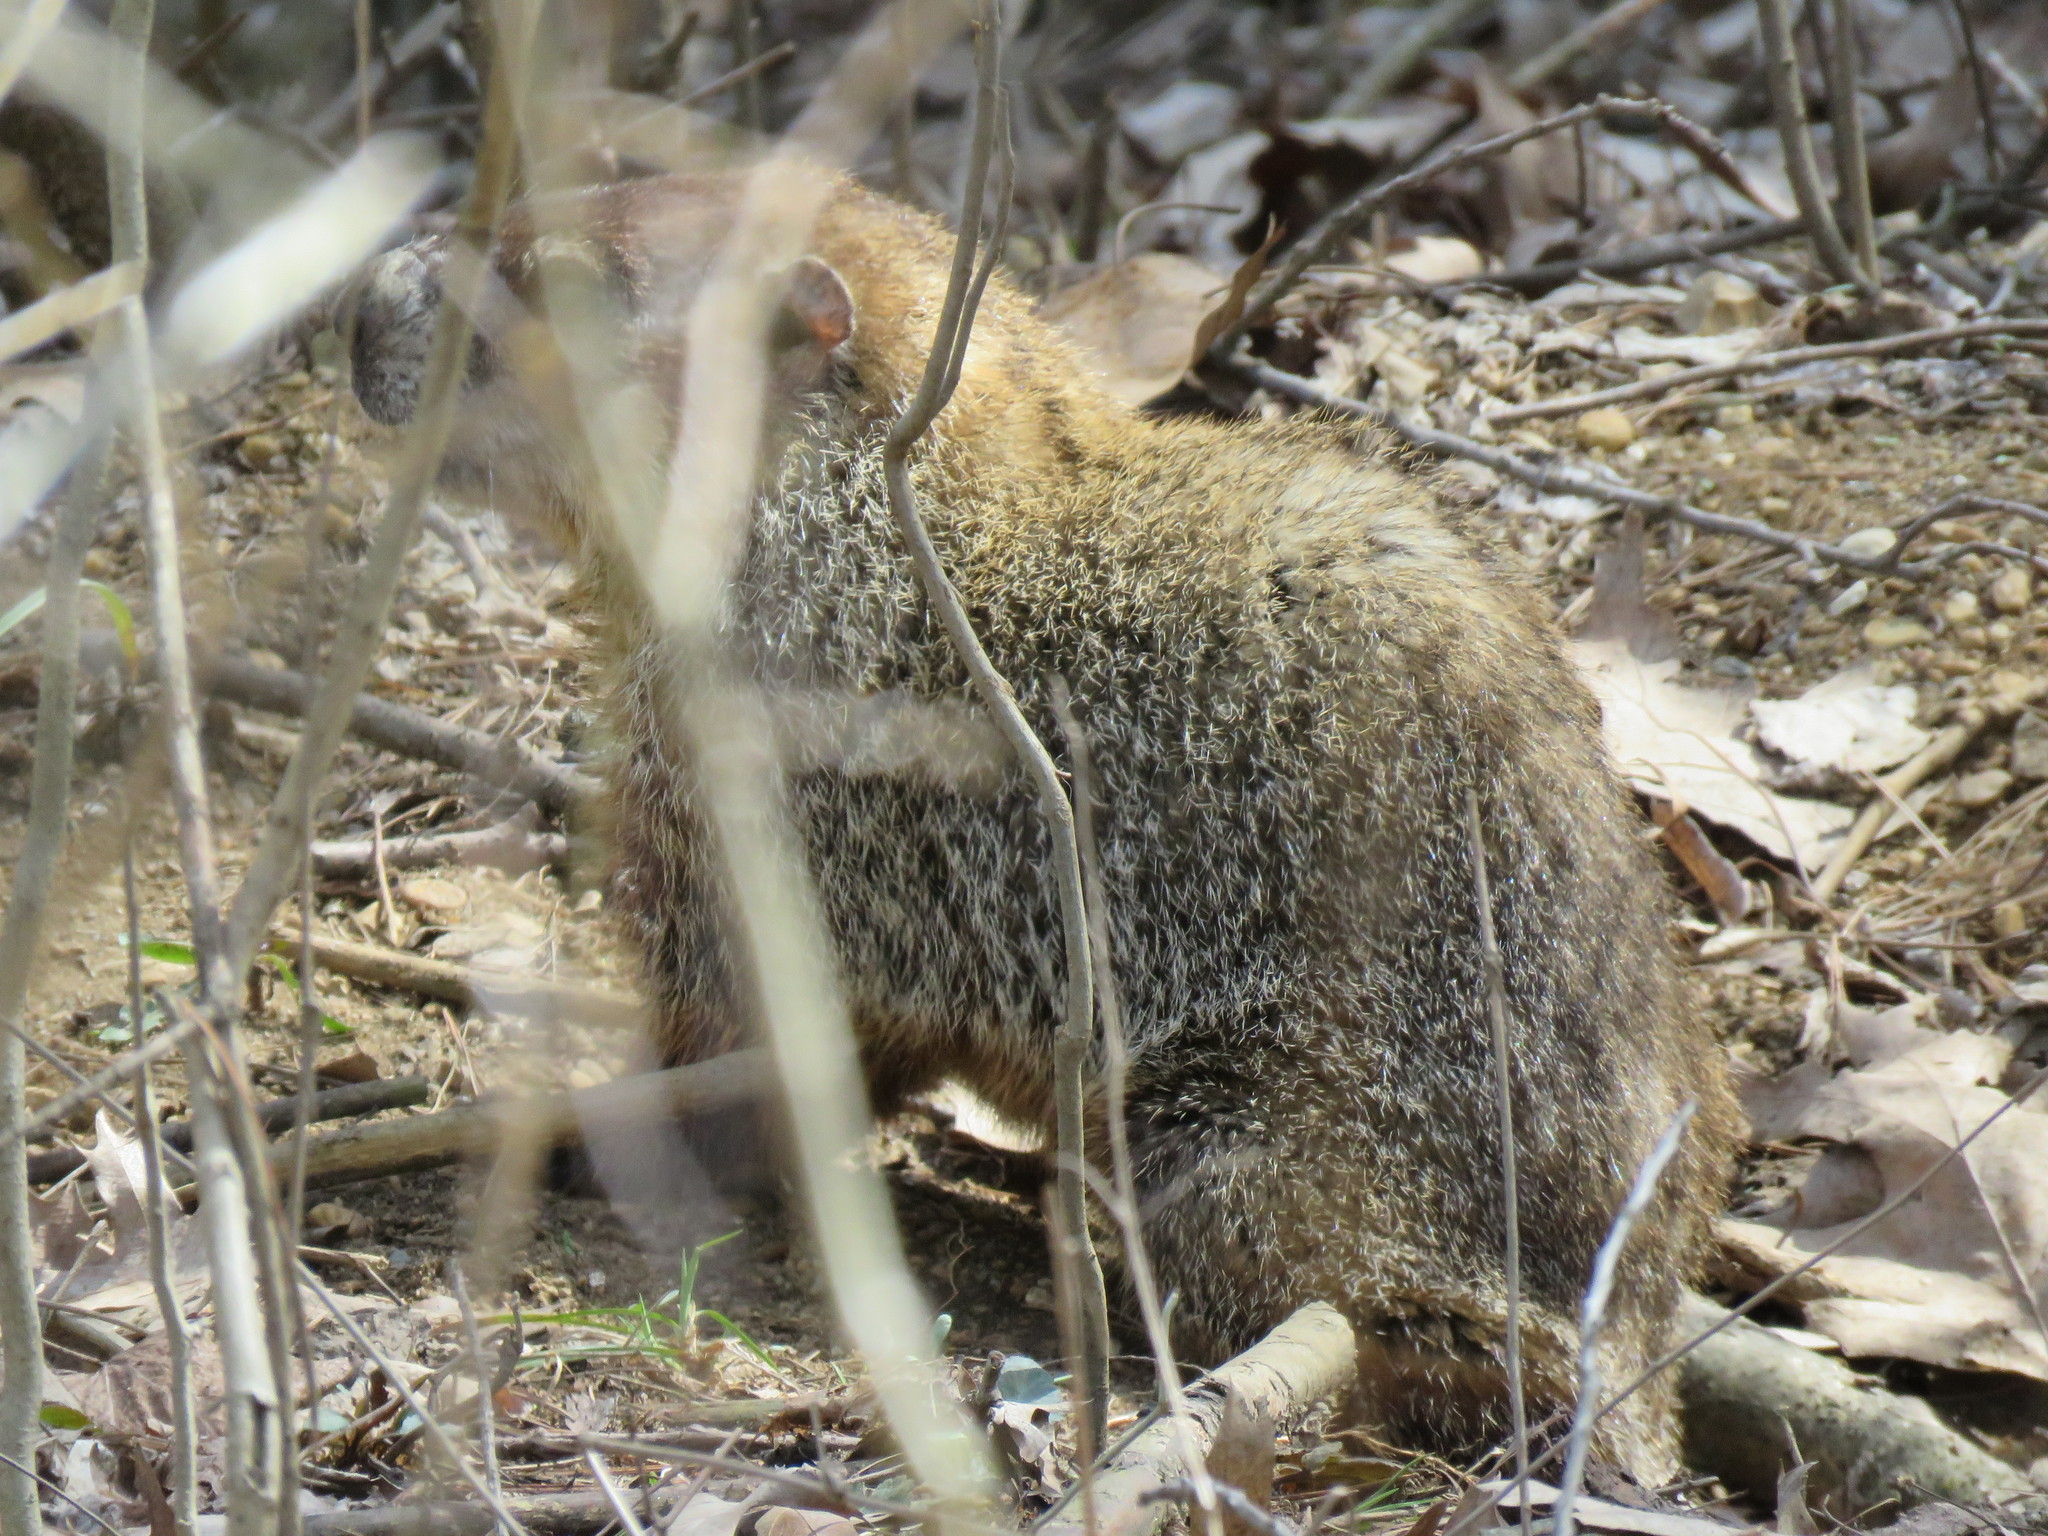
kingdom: Animalia
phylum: Chordata
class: Mammalia
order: Rodentia
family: Sciuridae
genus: Marmota
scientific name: Marmota monax
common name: Groundhog
